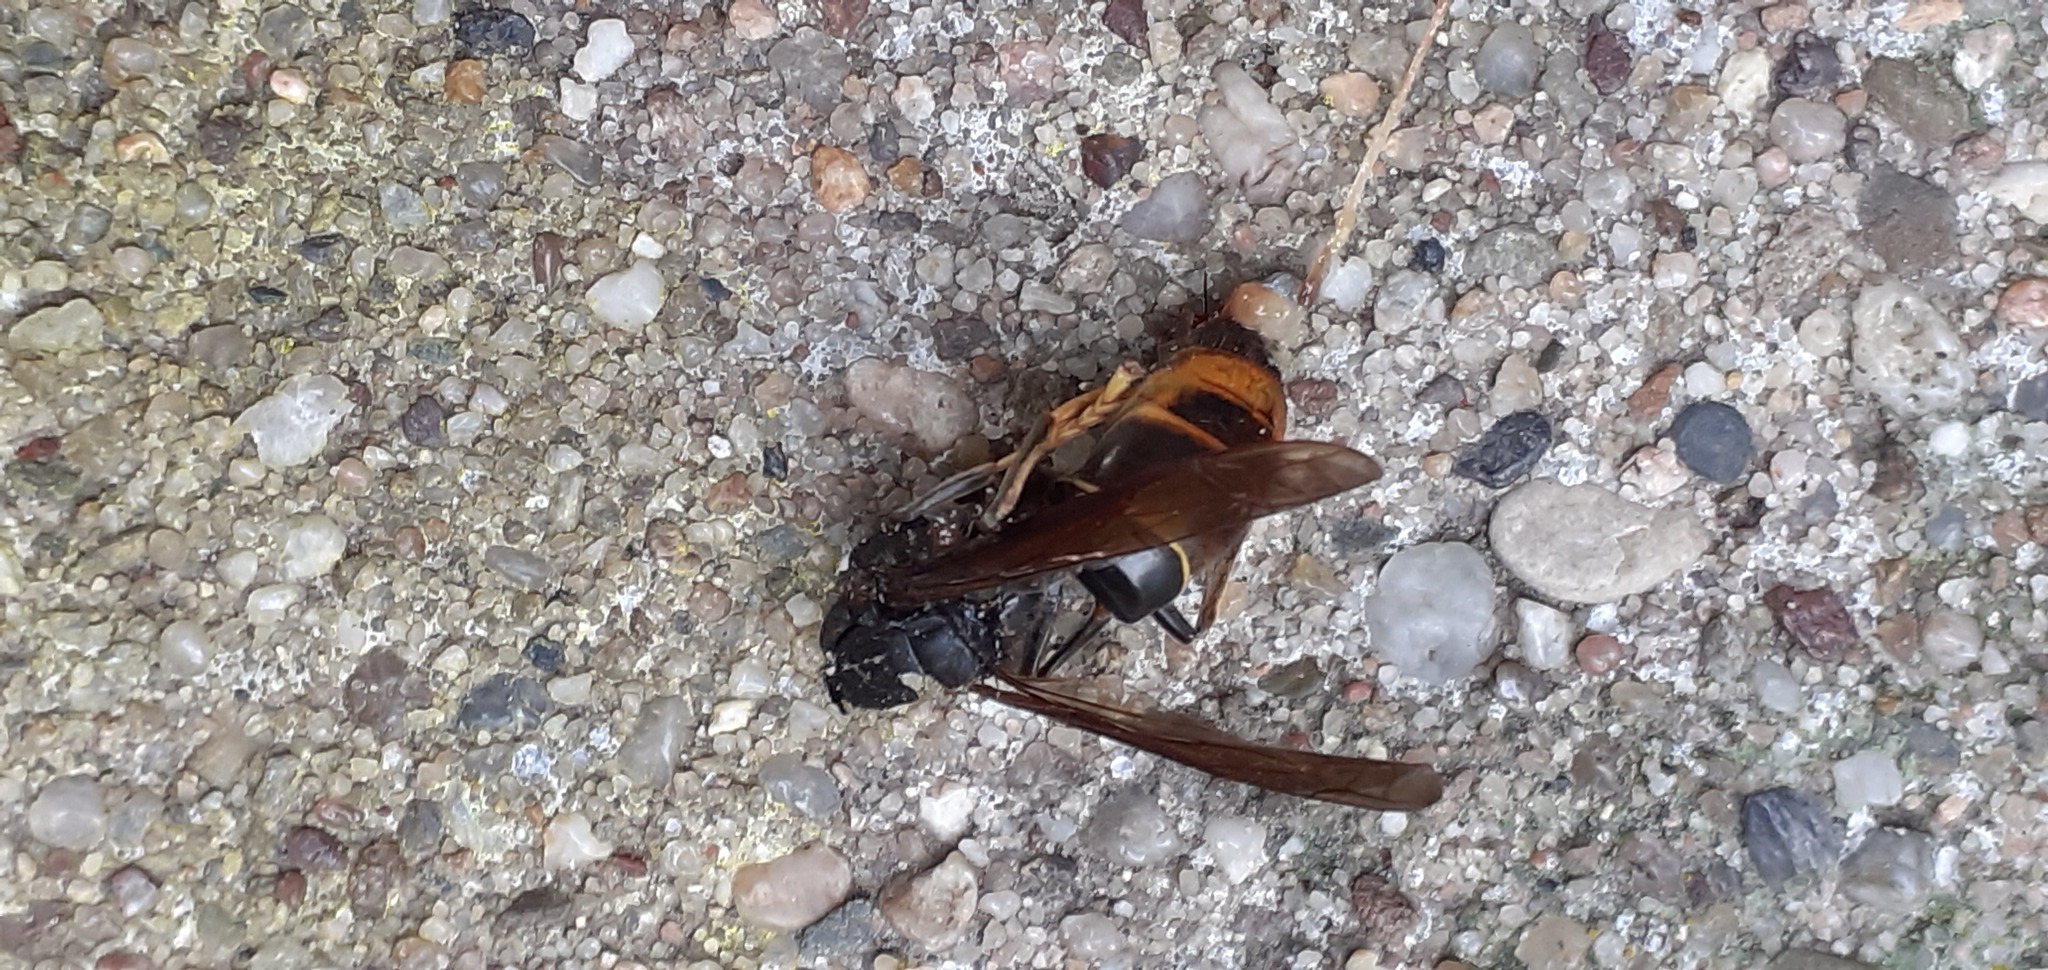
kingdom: Animalia
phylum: Arthropoda
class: Insecta
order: Hymenoptera
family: Vespidae
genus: Vespa
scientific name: Vespa velutina
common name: Asian hornet
